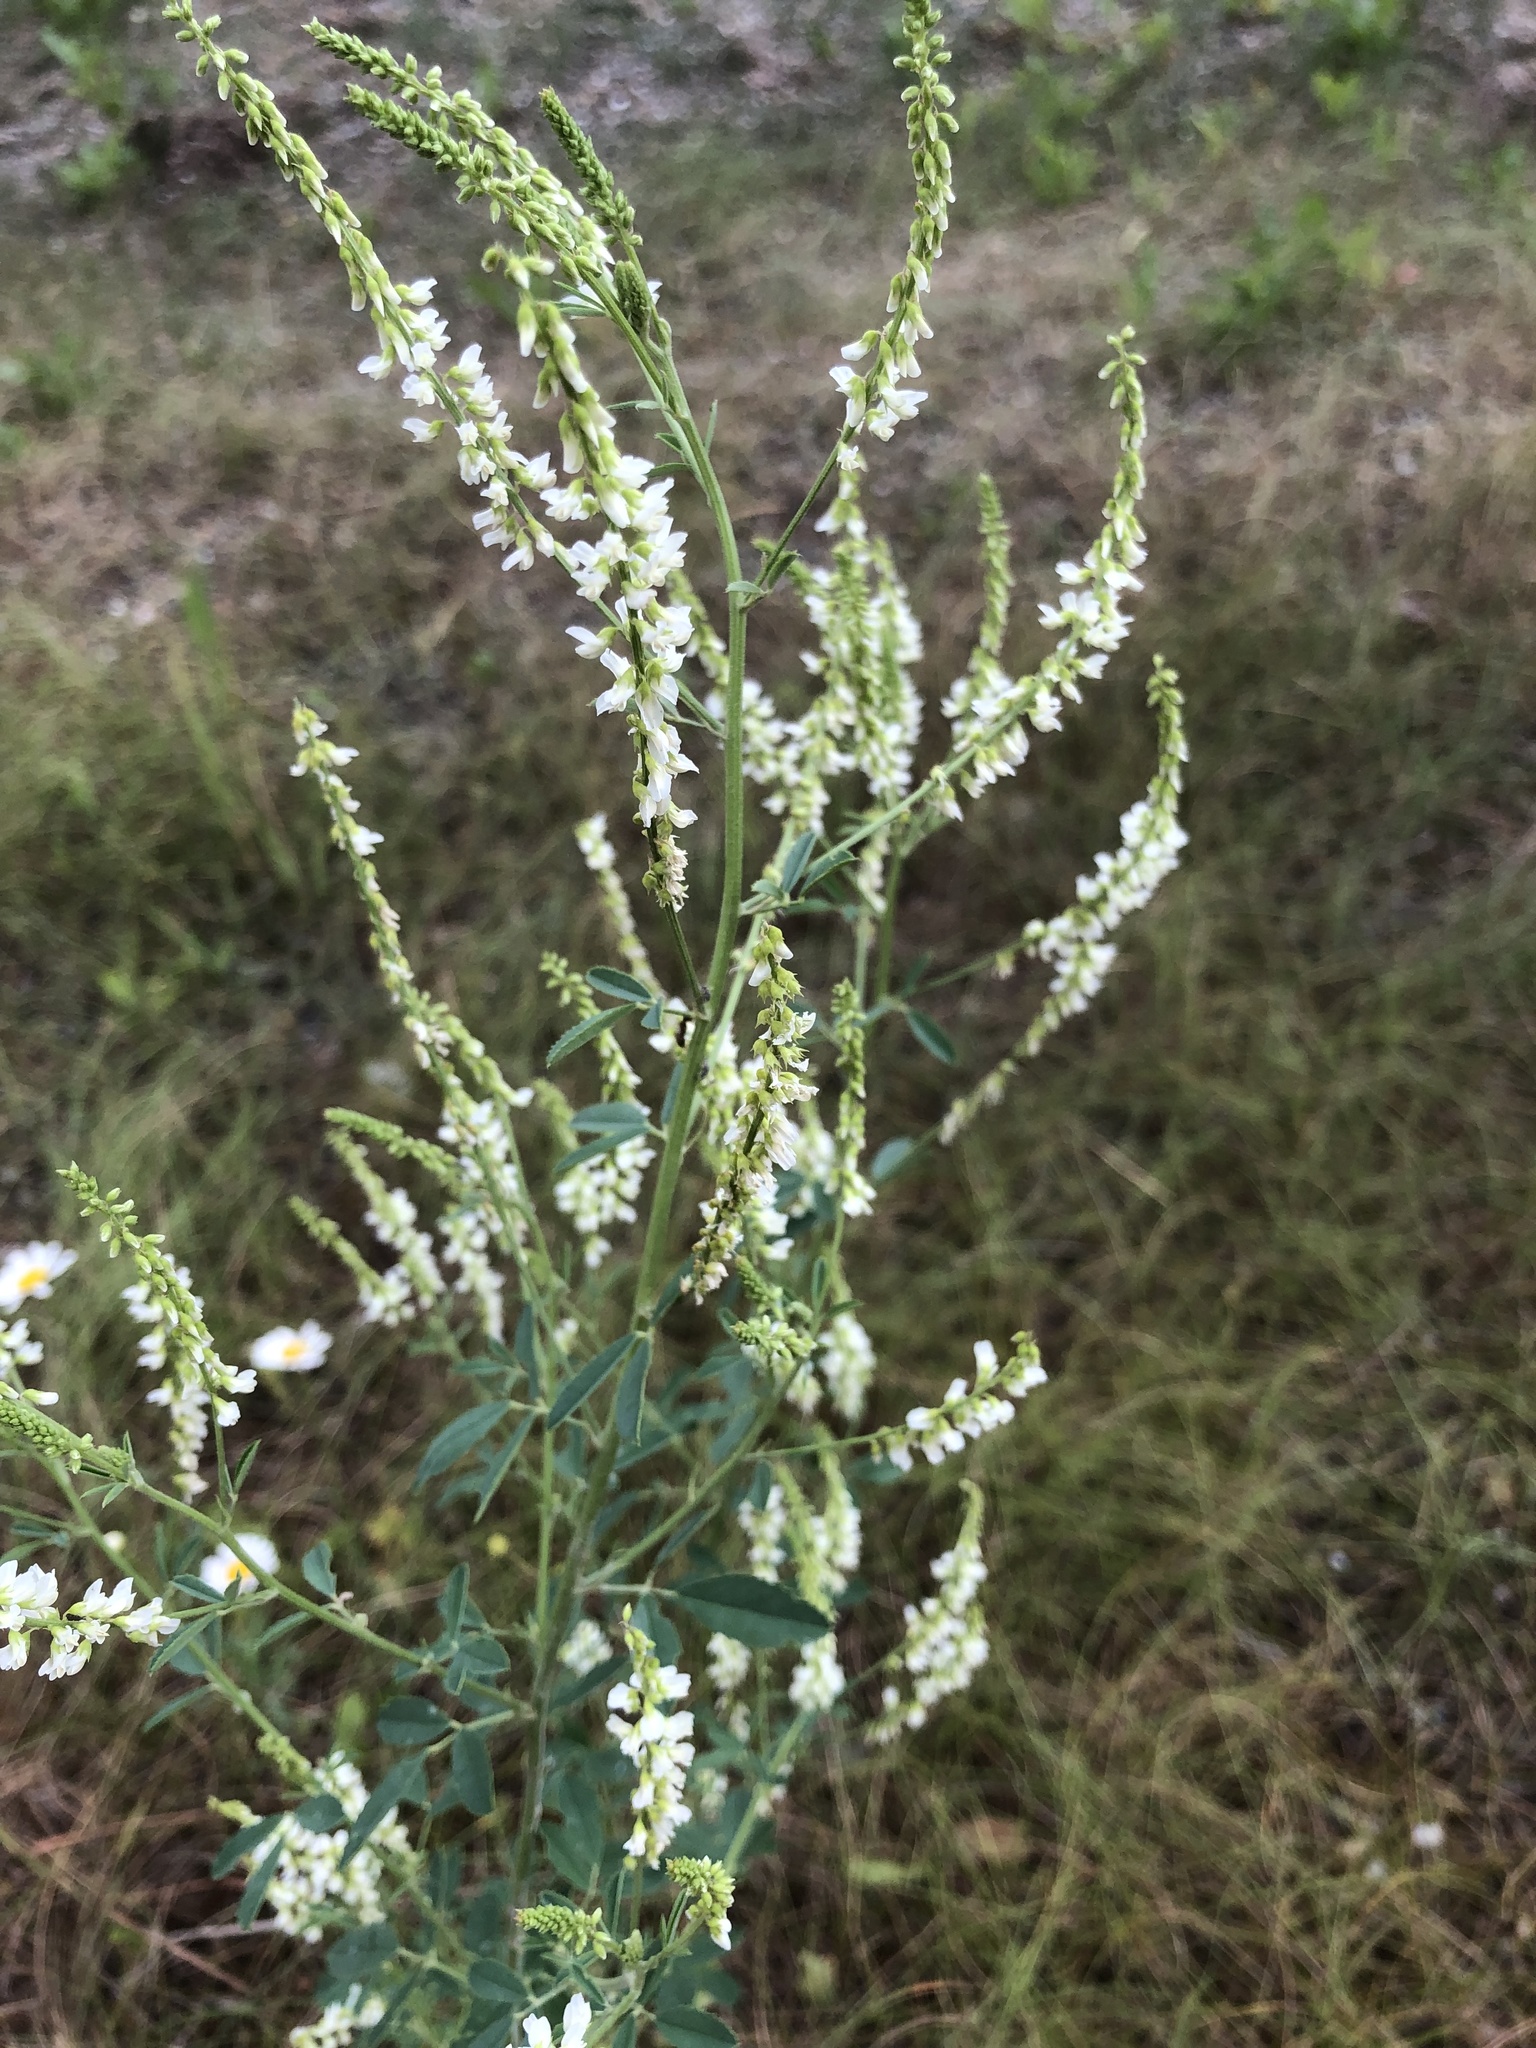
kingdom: Plantae
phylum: Tracheophyta
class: Magnoliopsida
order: Fabales
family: Fabaceae
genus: Melilotus
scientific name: Melilotus albus
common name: White melilot
